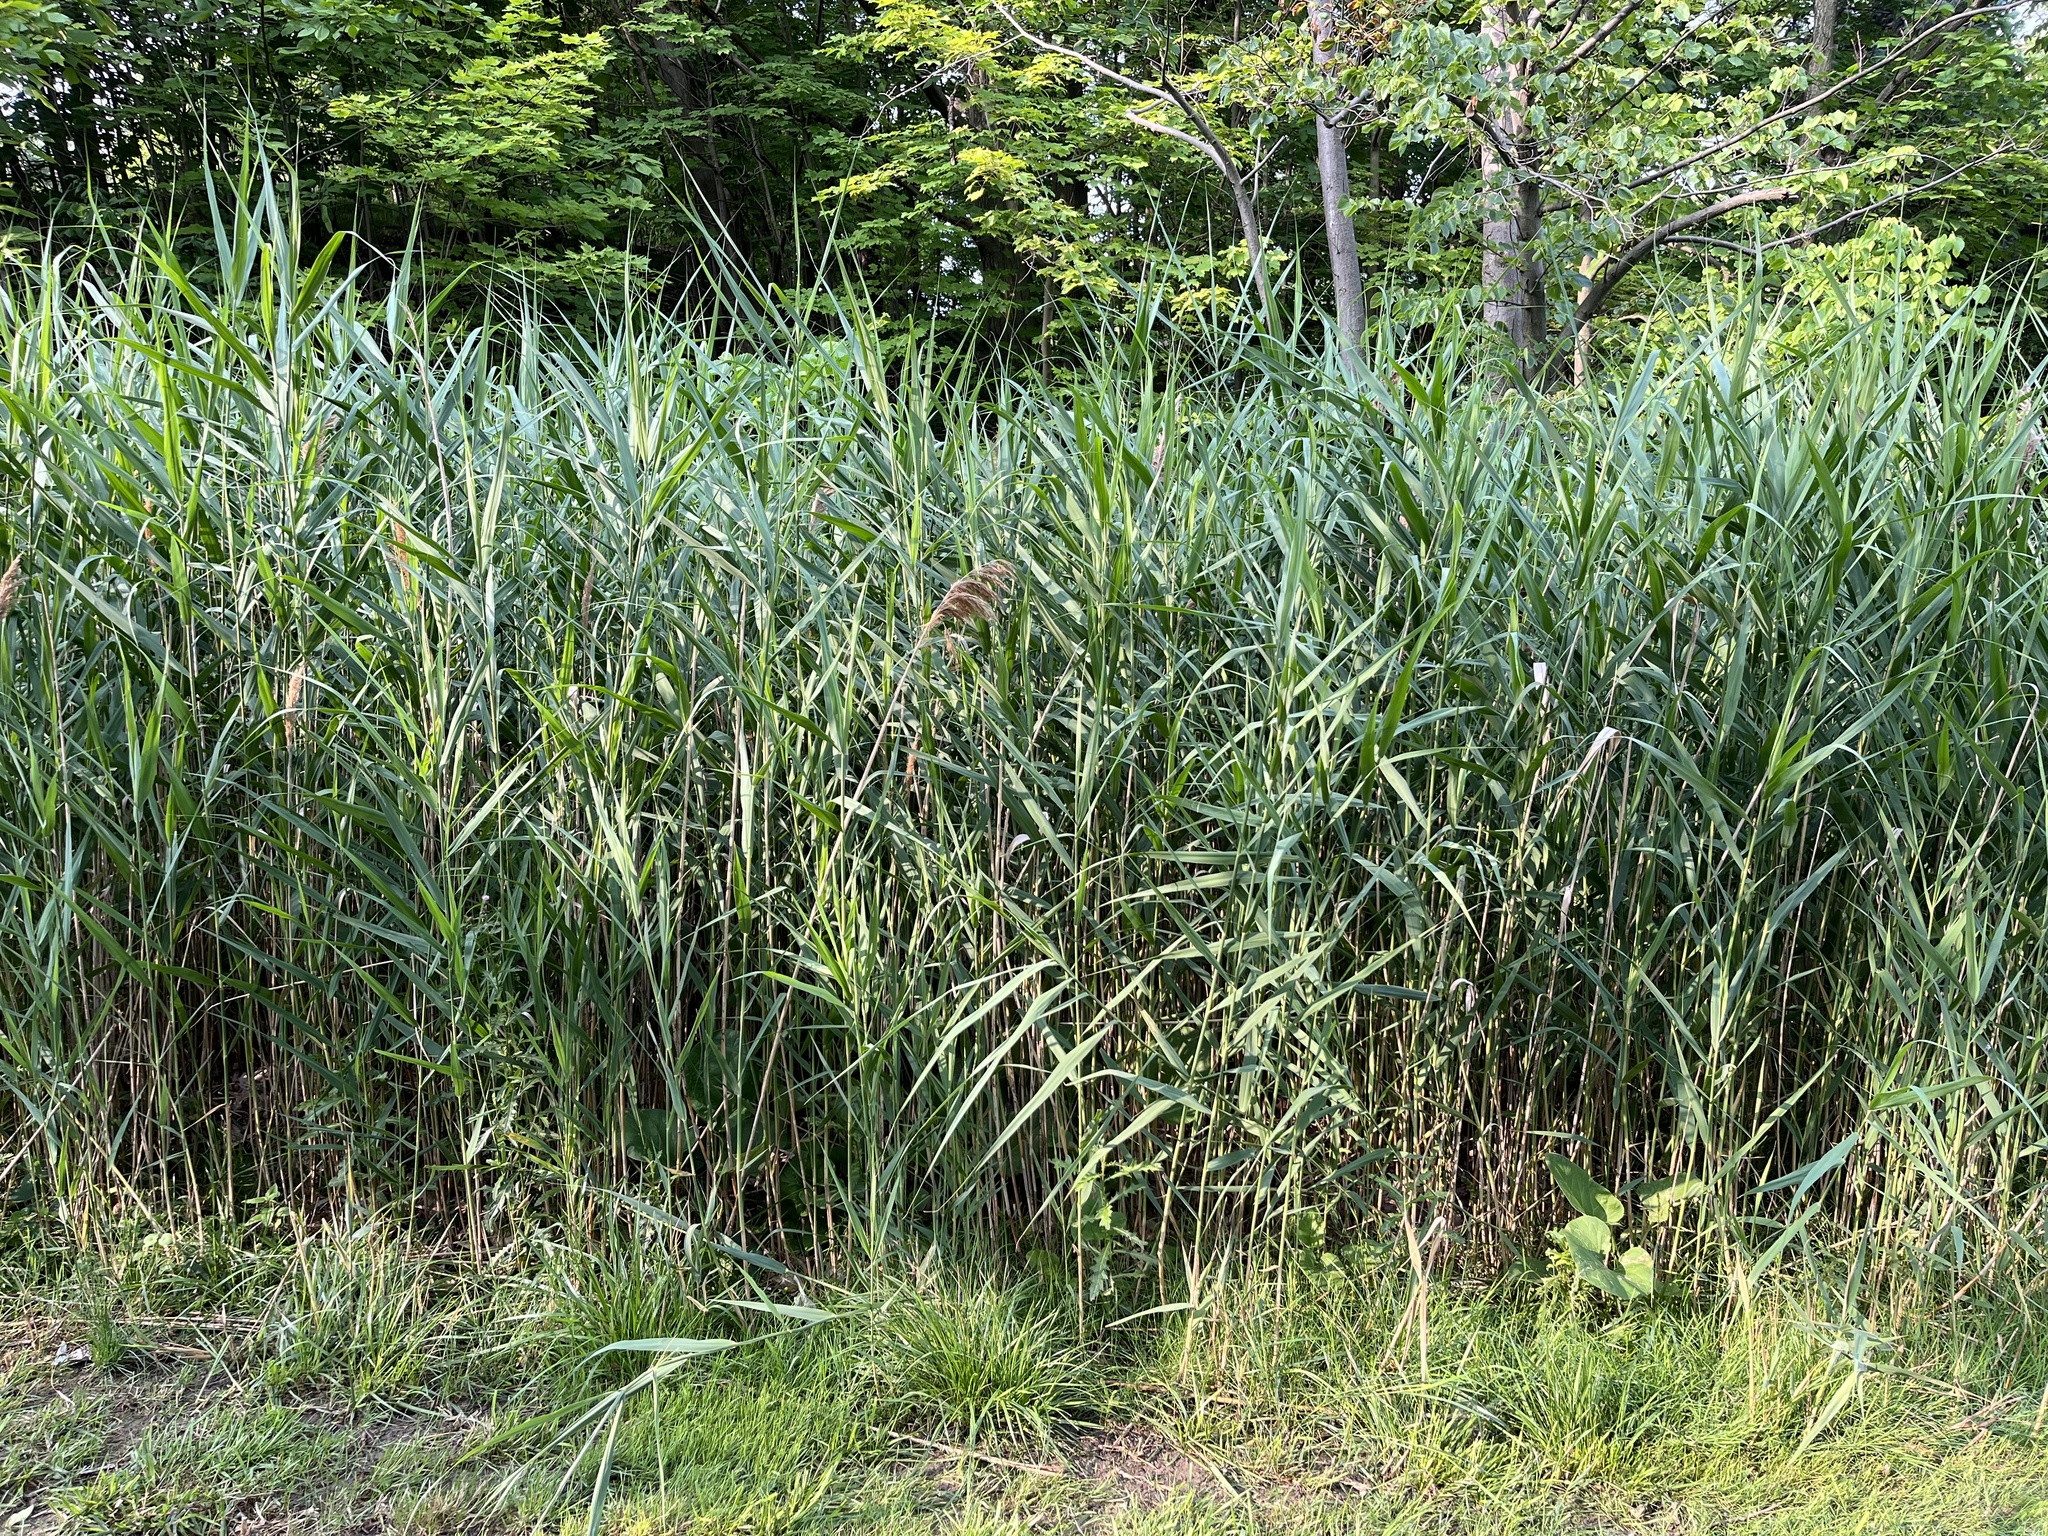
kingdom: Plantae
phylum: Tracheophyta
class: Liliopsida
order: Poales
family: Poaceae
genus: Phragmites
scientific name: Phragmites australis
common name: Common reed
